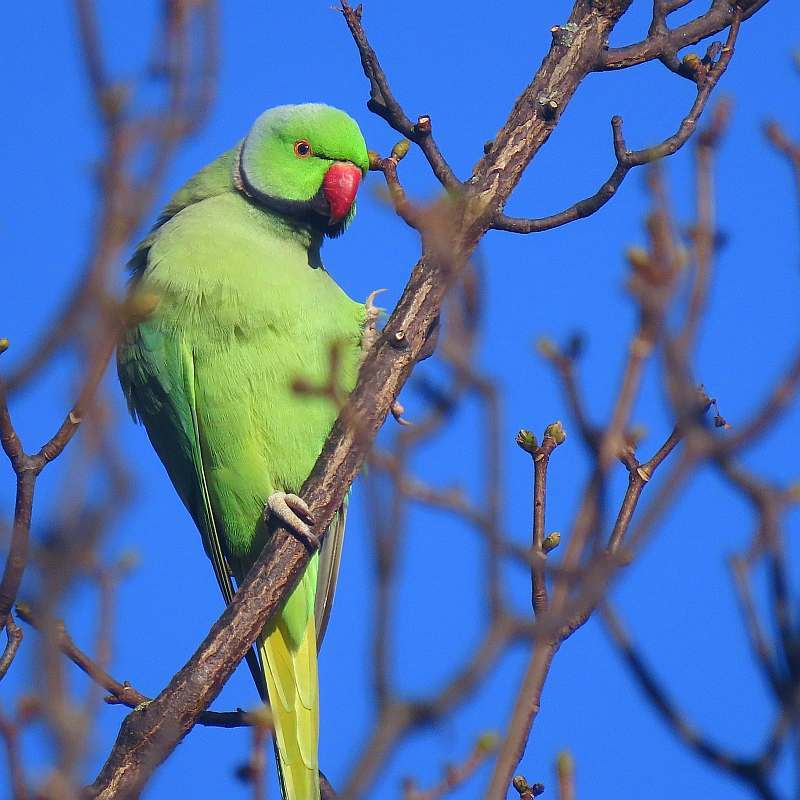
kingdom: Animalia
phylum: Chordata
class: Aves
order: Psittaciformes
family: Psittacidae
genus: Psittacula
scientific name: Psittacula krameri
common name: Rose-ringed parakeet
